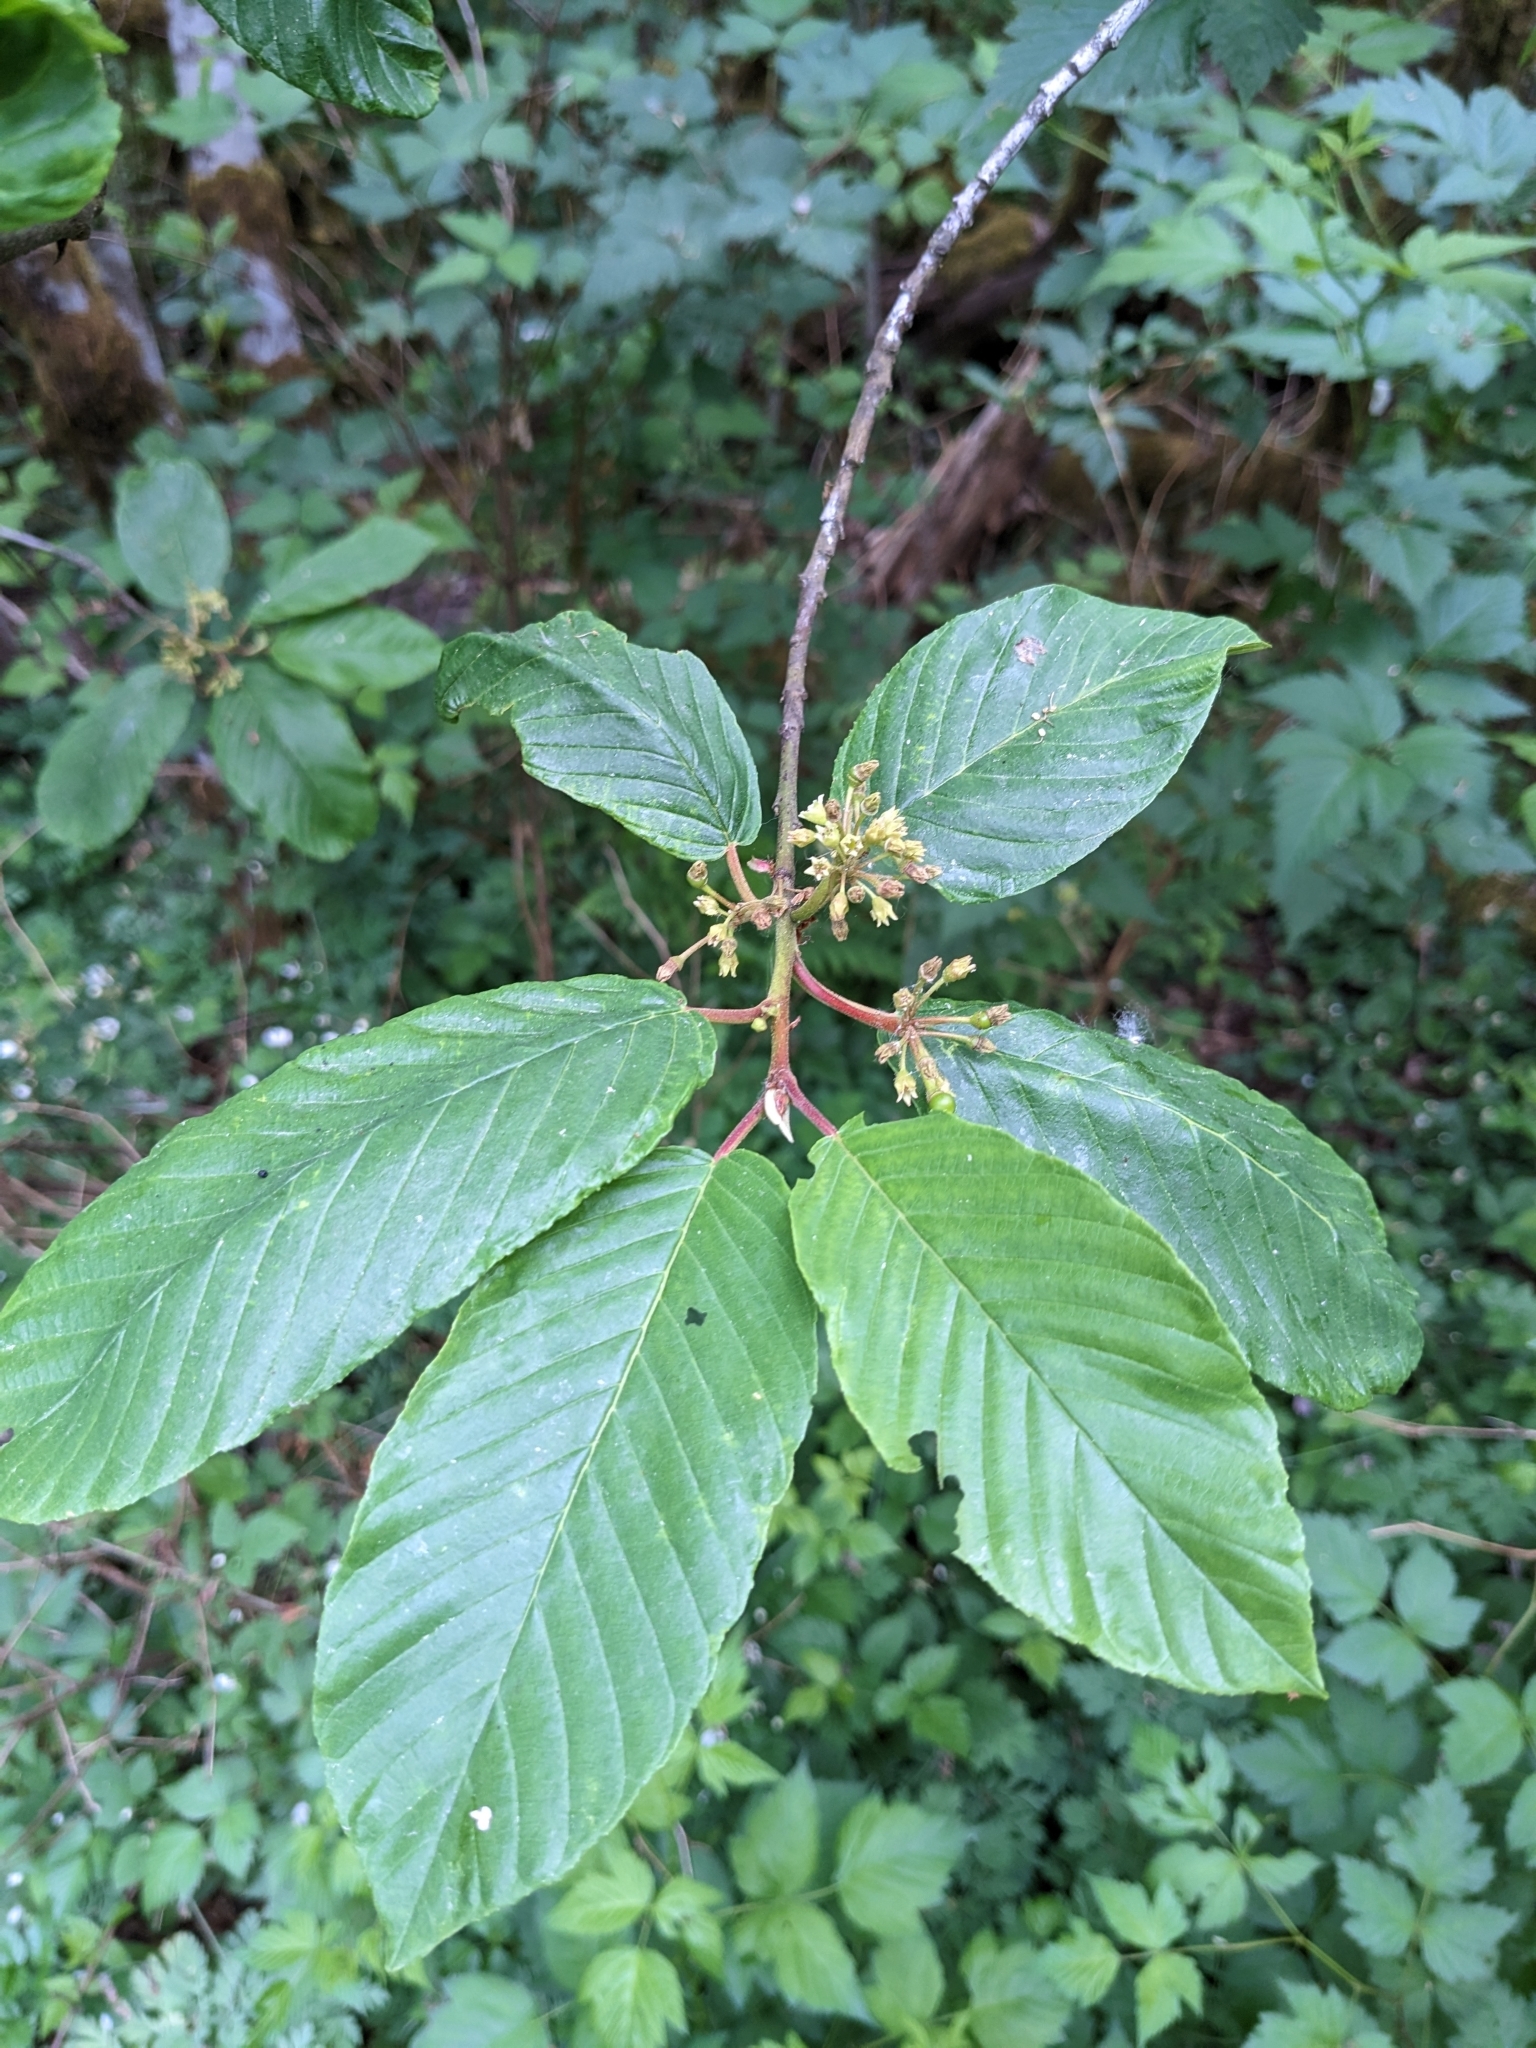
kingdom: Plantae
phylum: Tracheophyta
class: Magnoliopsida
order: Rosales
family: Rhamnaceae
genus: Frangula
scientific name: Frangula purshiana
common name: Cascara buckthorn
